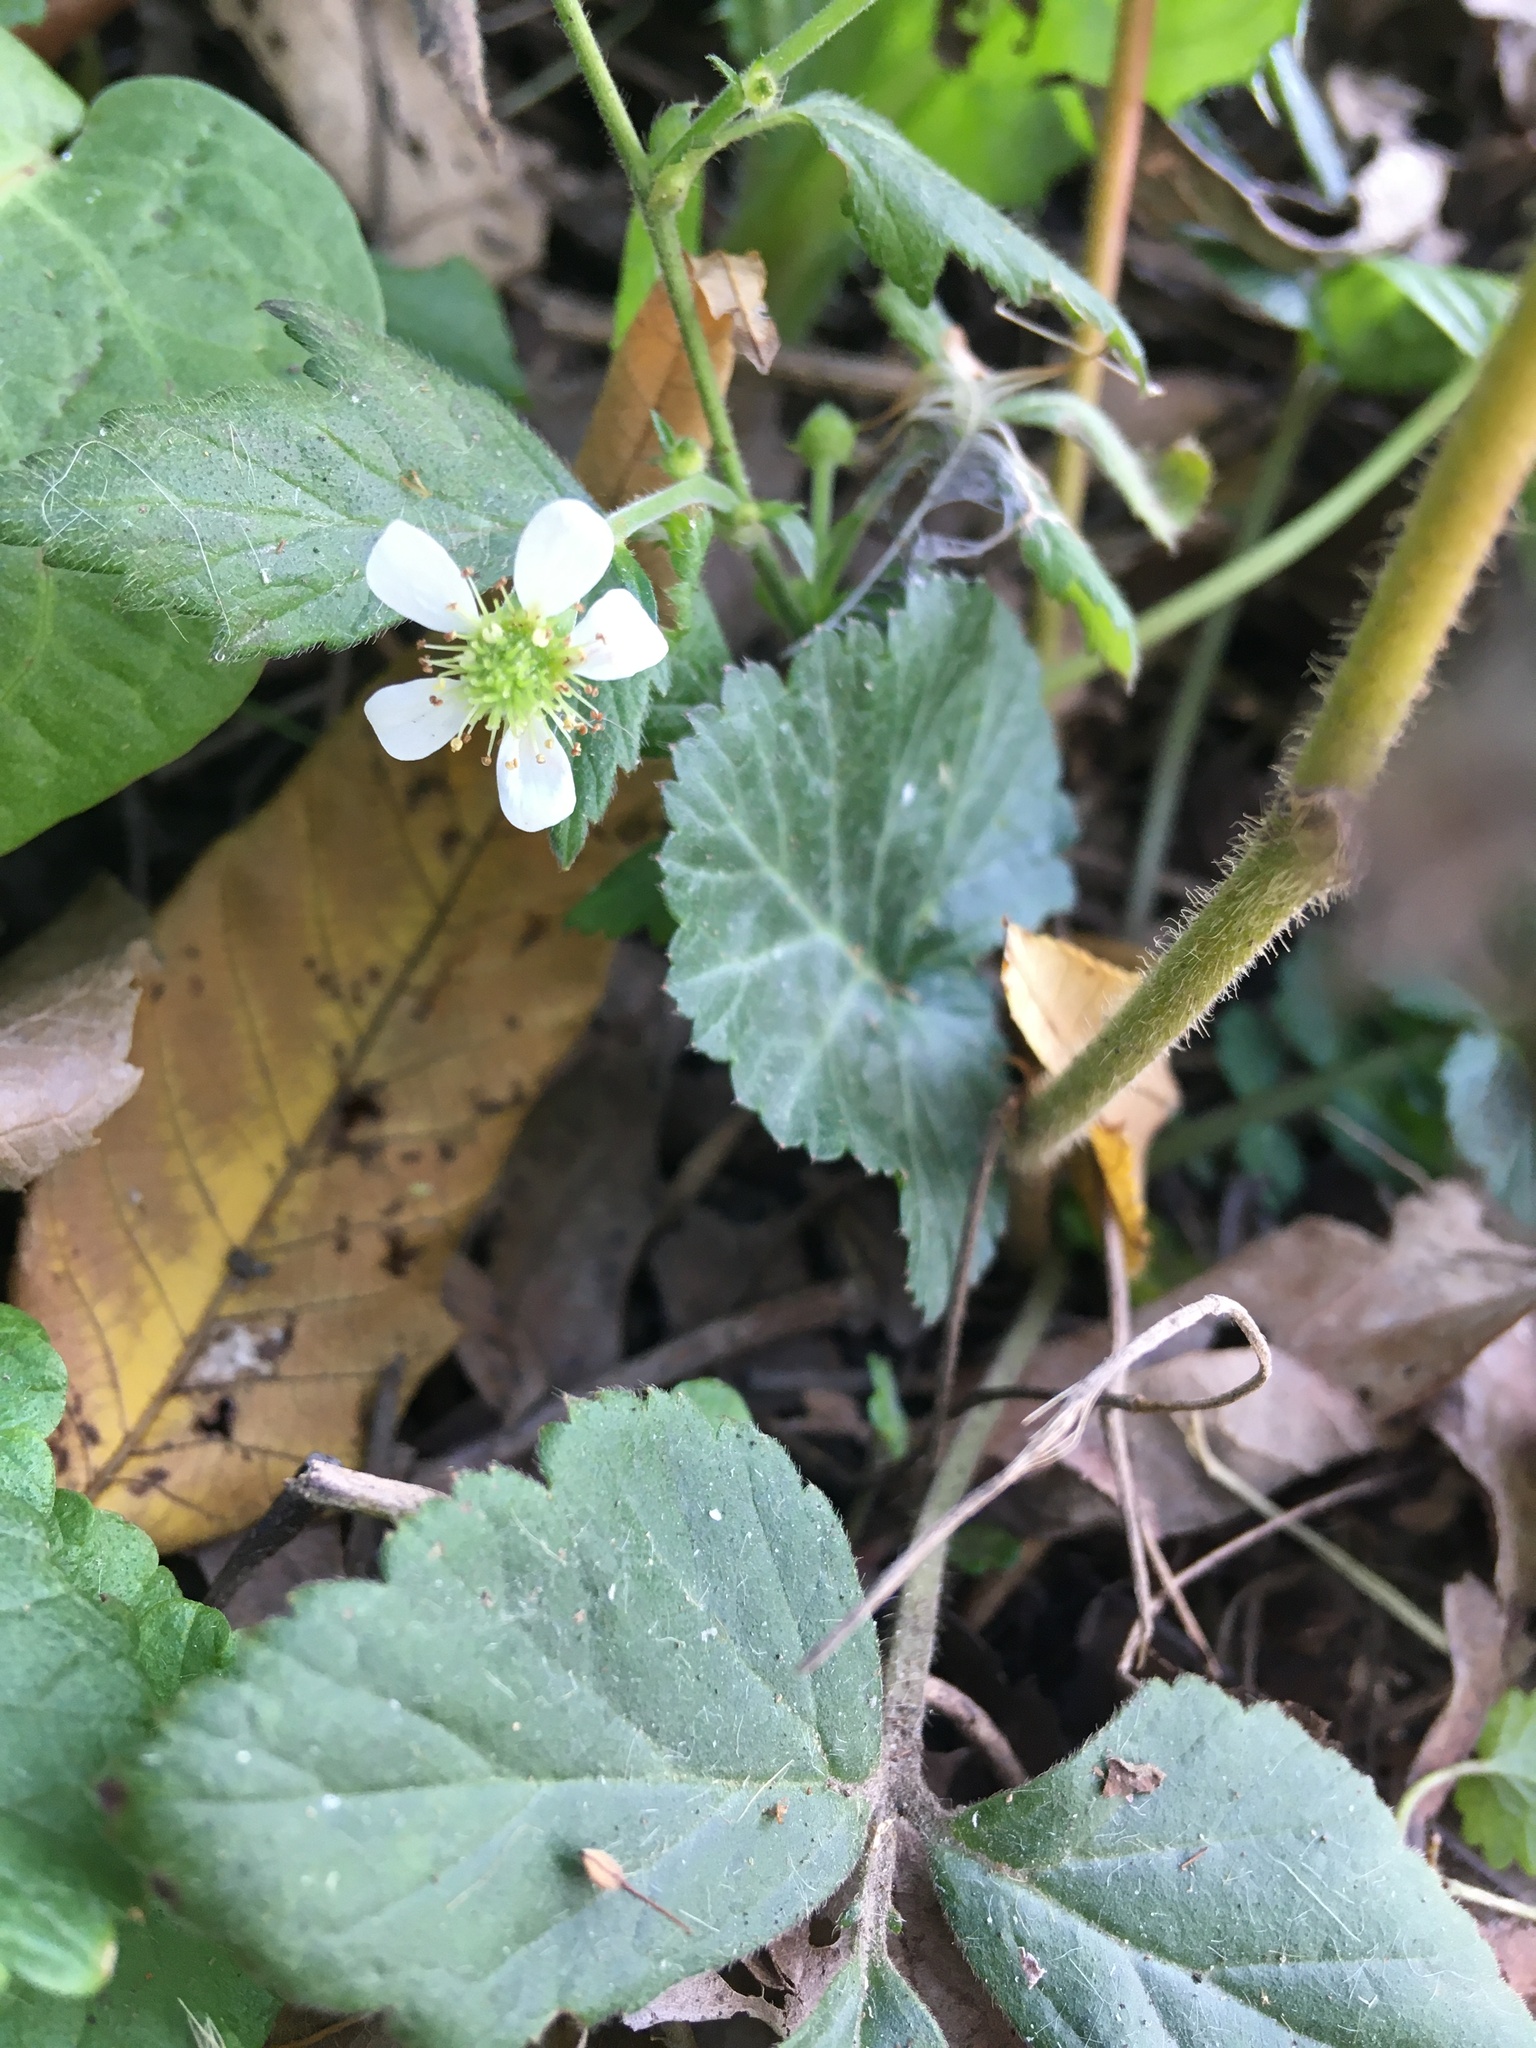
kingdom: Plantae
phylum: Tracheophyta
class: Magnoliopsida
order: Rosales
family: Rosaceae
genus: Geum
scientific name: Geum canadense
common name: White avens
